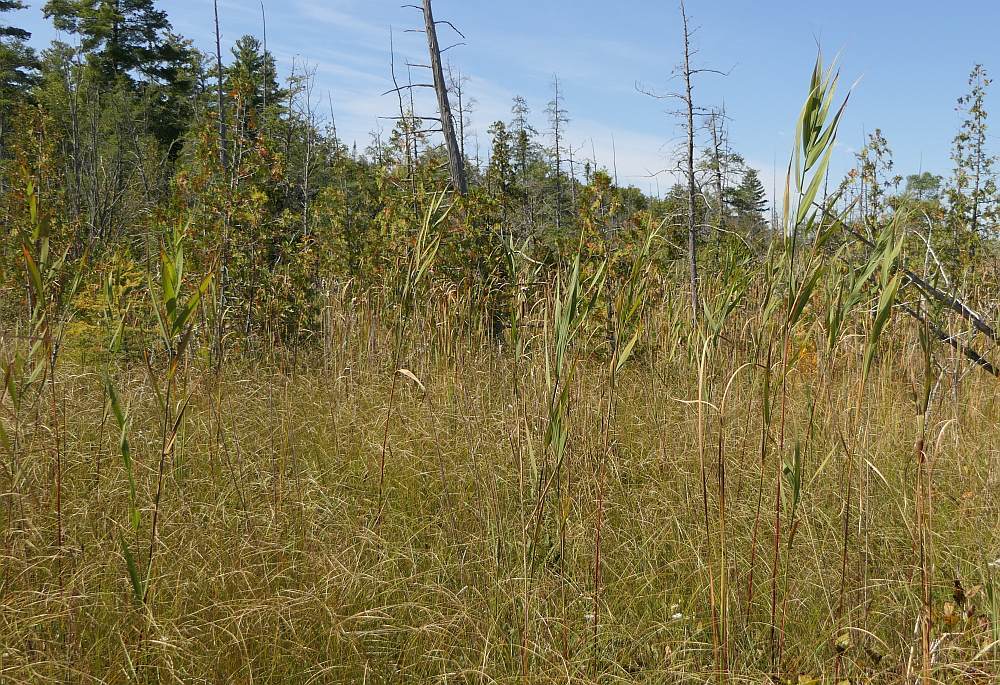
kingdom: Plantae
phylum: Tracheophyta
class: Liliopsida
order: Poales
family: Poaceae
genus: Phragmites
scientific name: Phragmites australis
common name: Common reed
